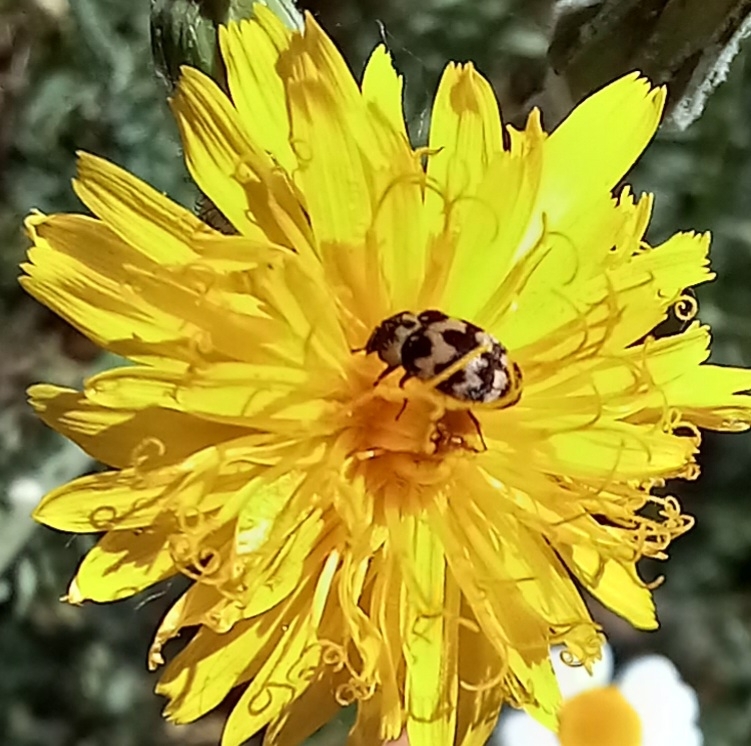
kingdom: Animalia
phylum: Arthropoda
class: Insecta
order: Coleoptera
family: Dermestidae
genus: Attagenus
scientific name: Attagenus trifasciatus
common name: Carpet beetle
